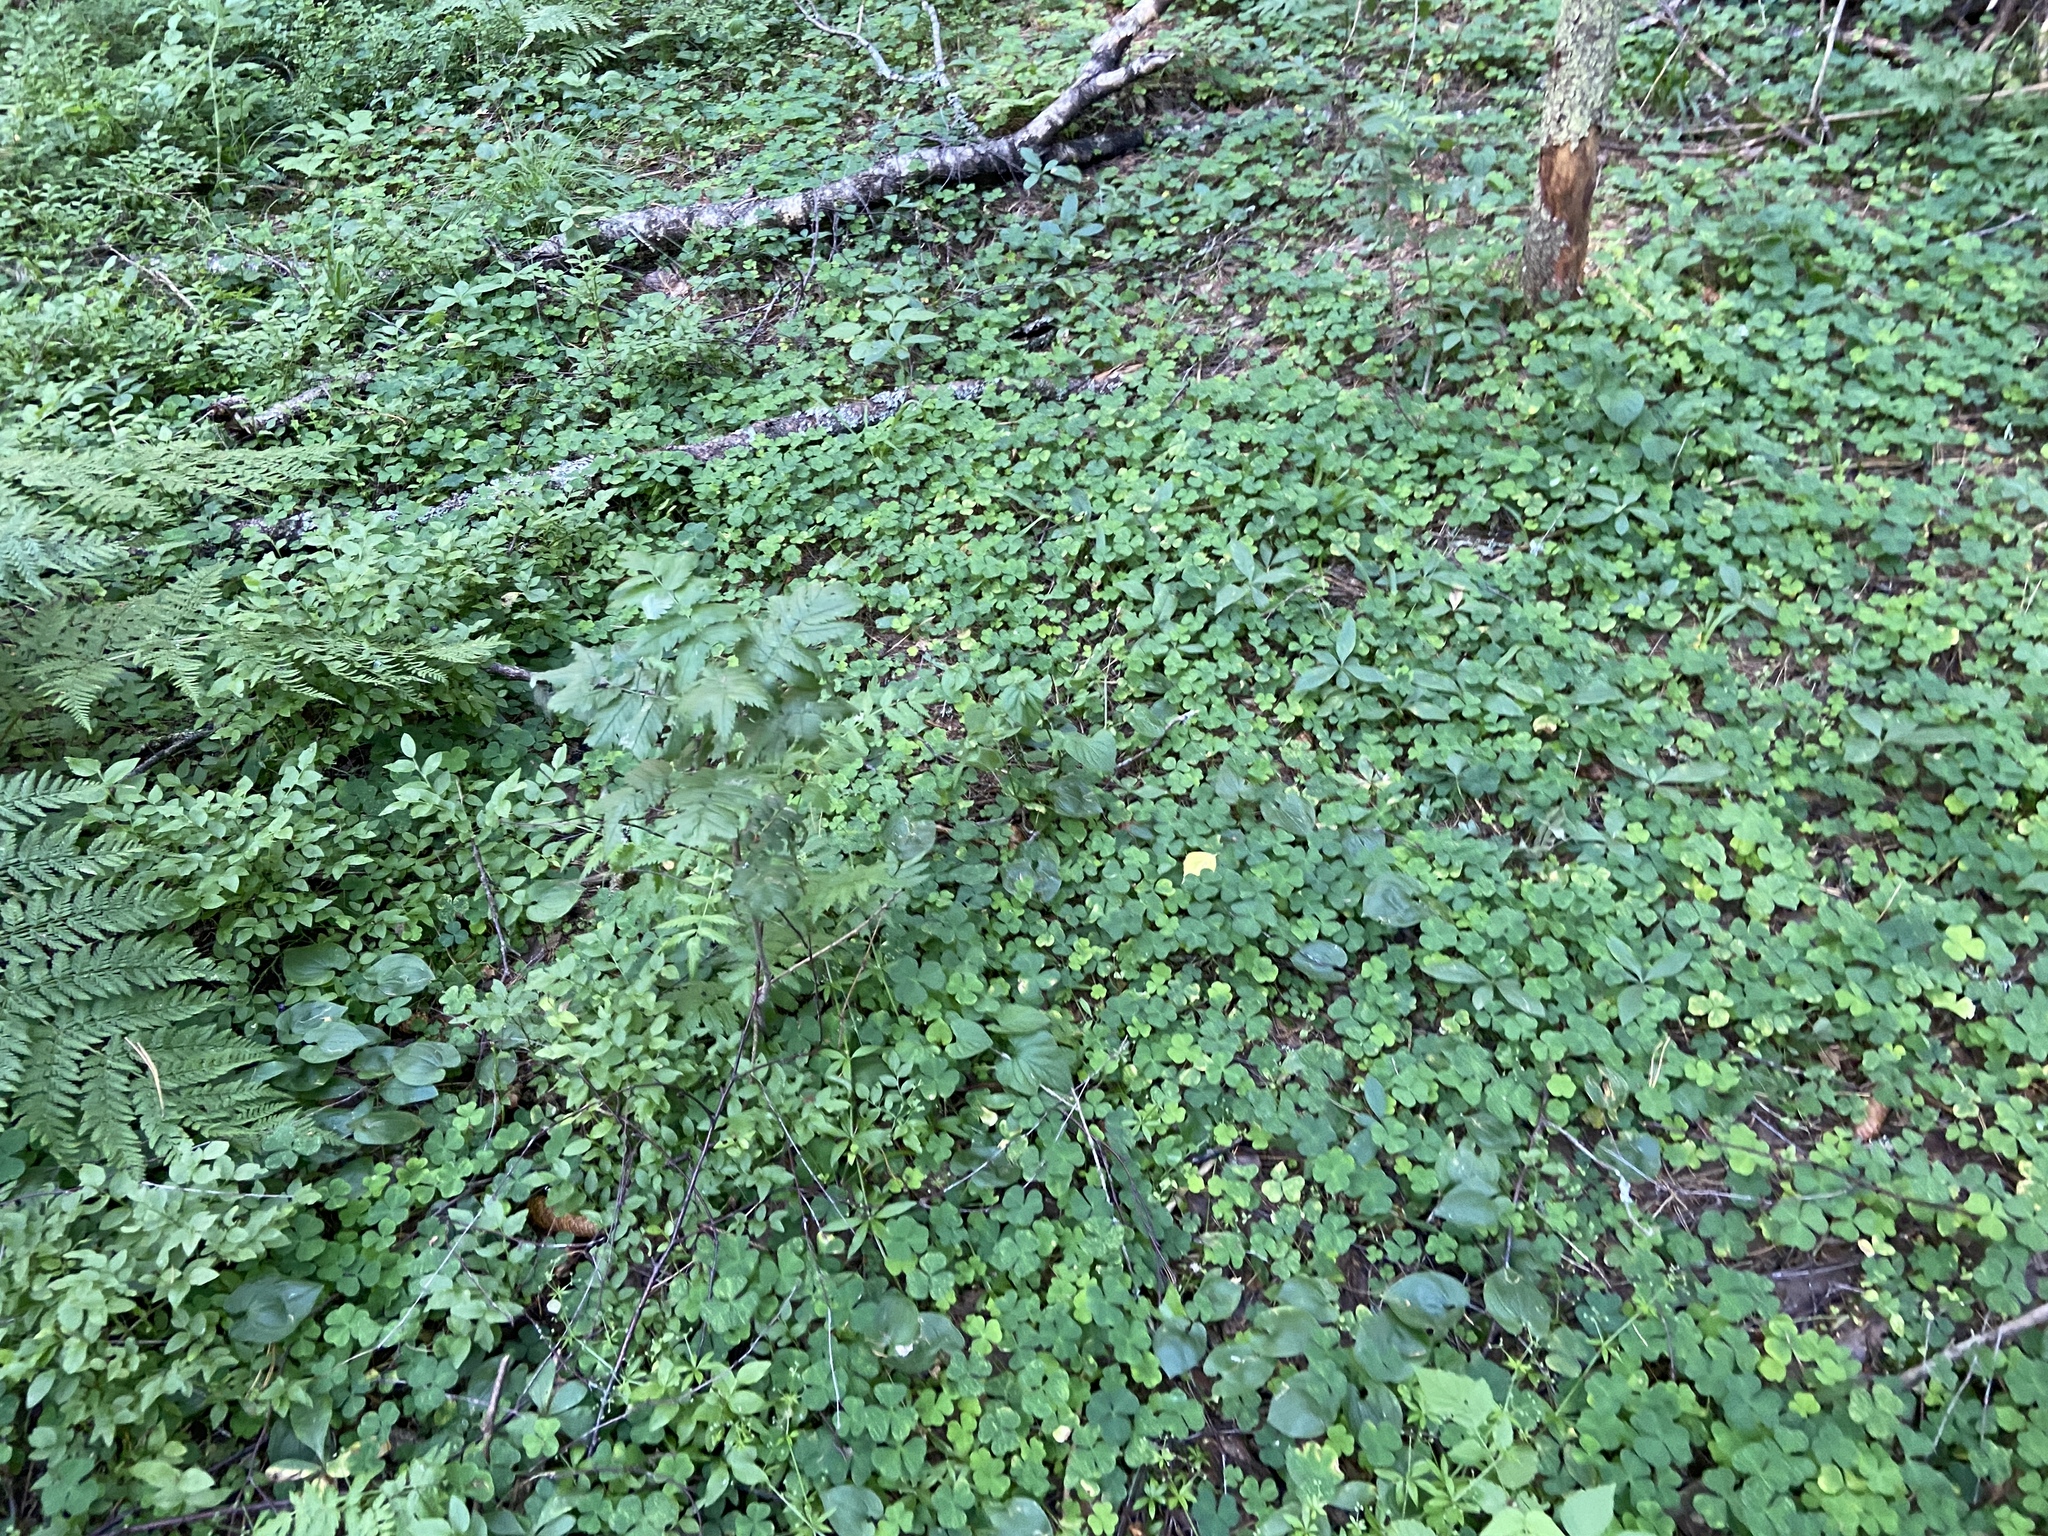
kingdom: Plantae
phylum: Tracheophyta
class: Magnoliopsida
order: Oxalidales
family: Oxalidaceae
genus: Oxalis
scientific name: Oxalis acetosella
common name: Wood-sorrel
